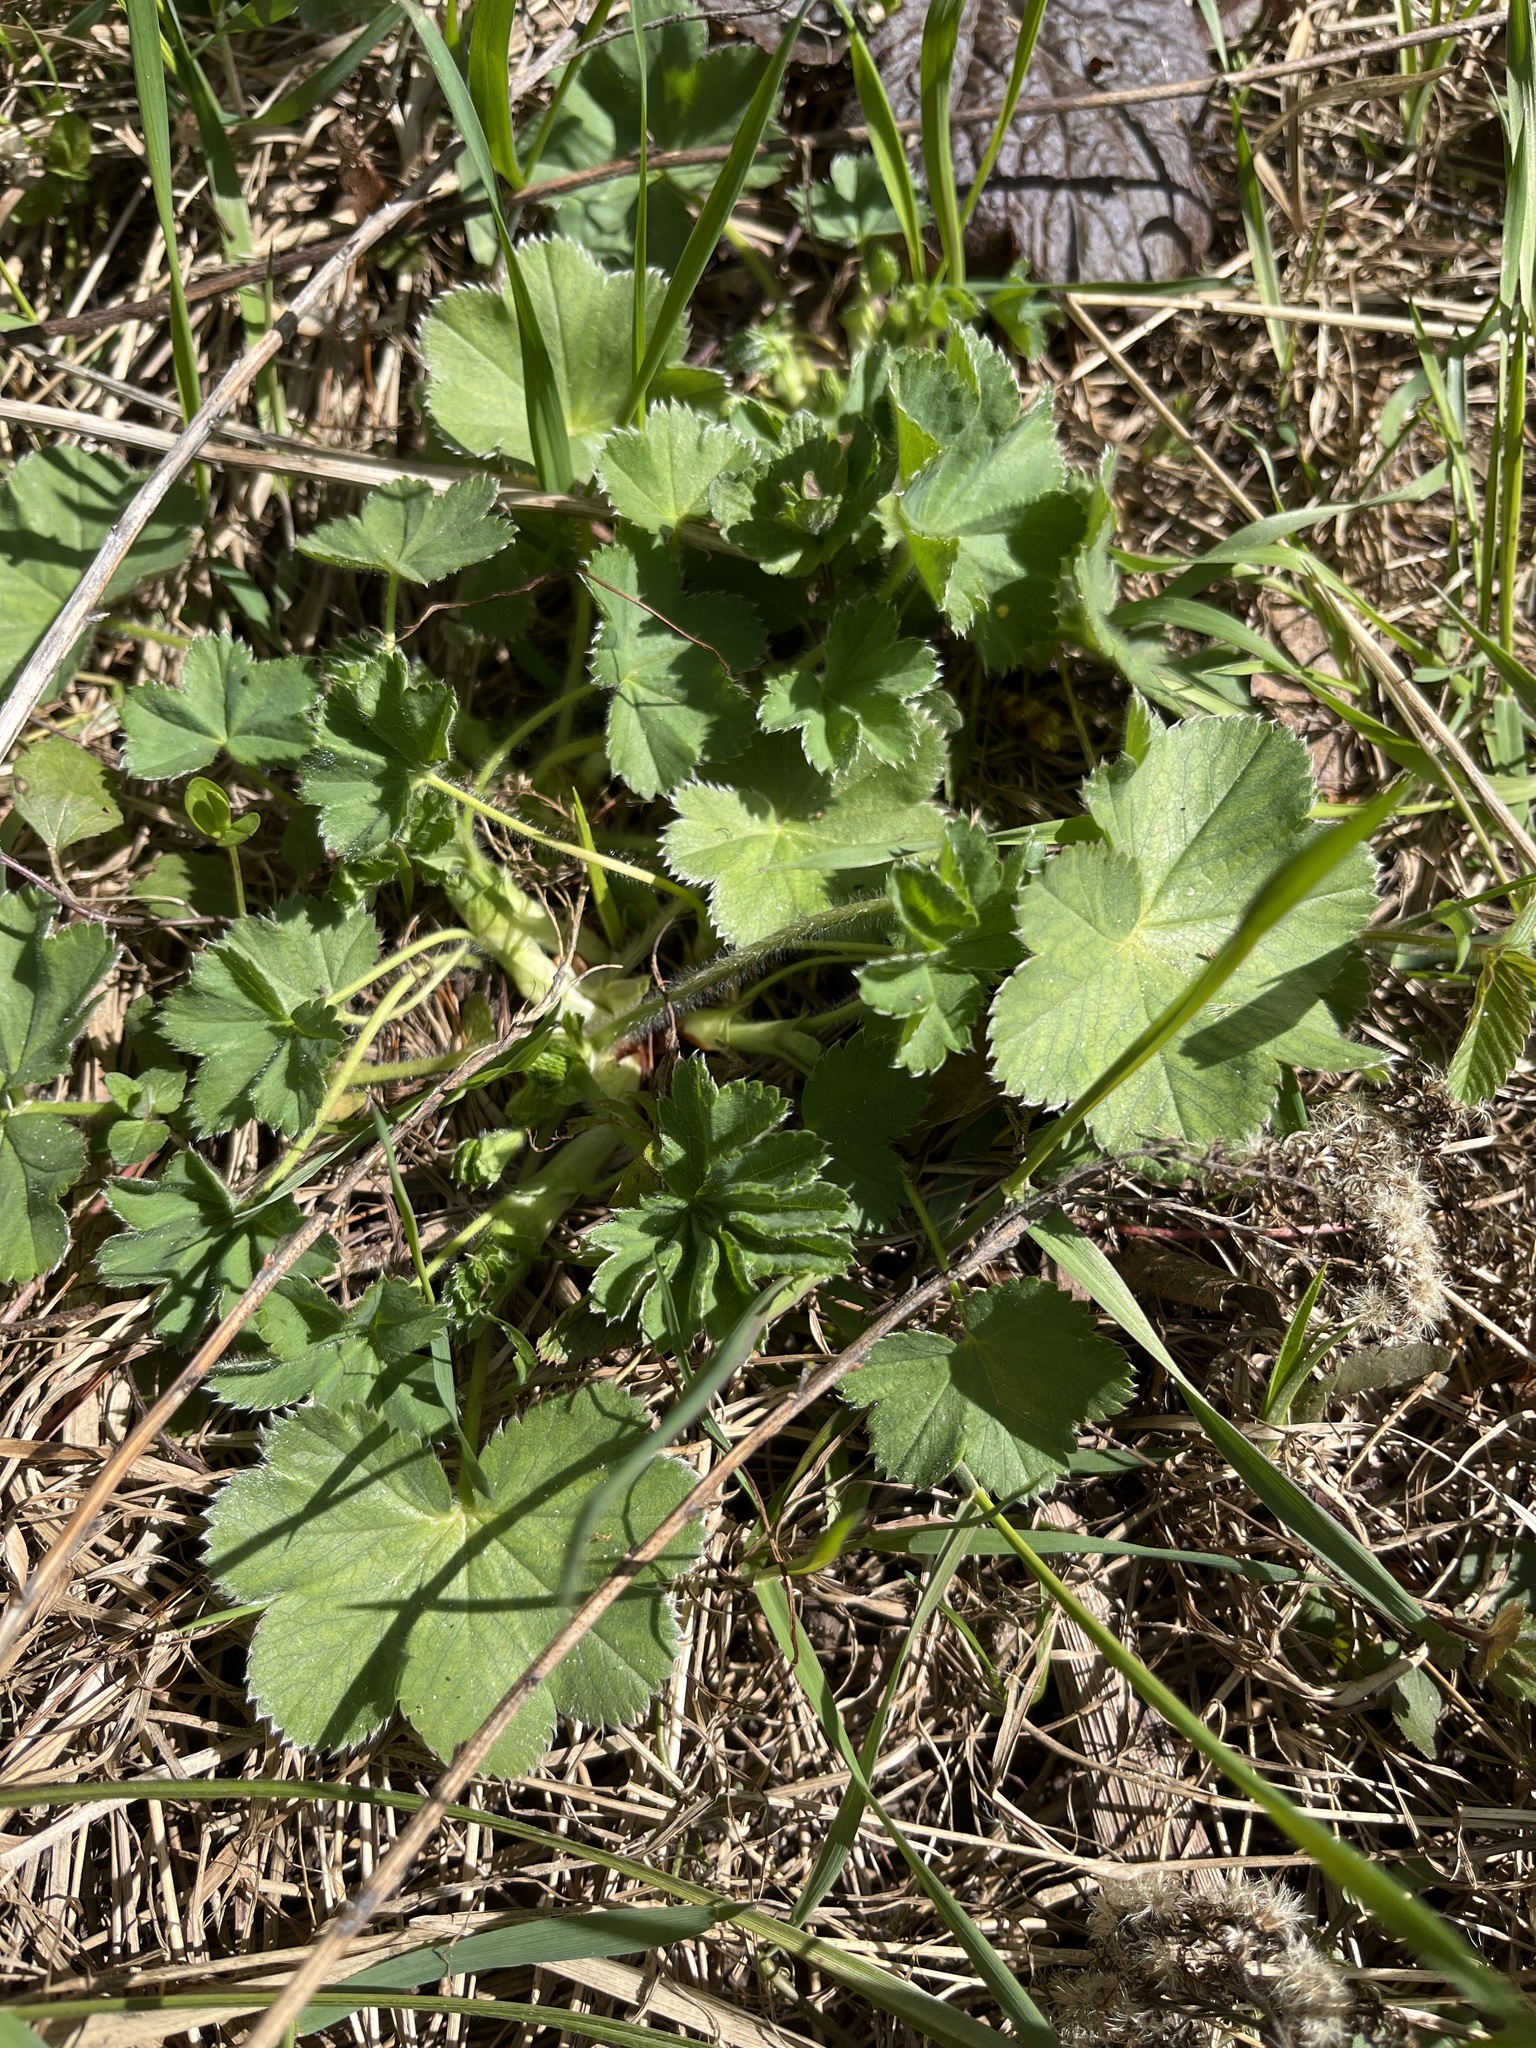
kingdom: Plantae
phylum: Tracheophyta
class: Magnoliopsida
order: Rosales
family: Rosaceae
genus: Alchemilla
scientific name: Alchemilla
